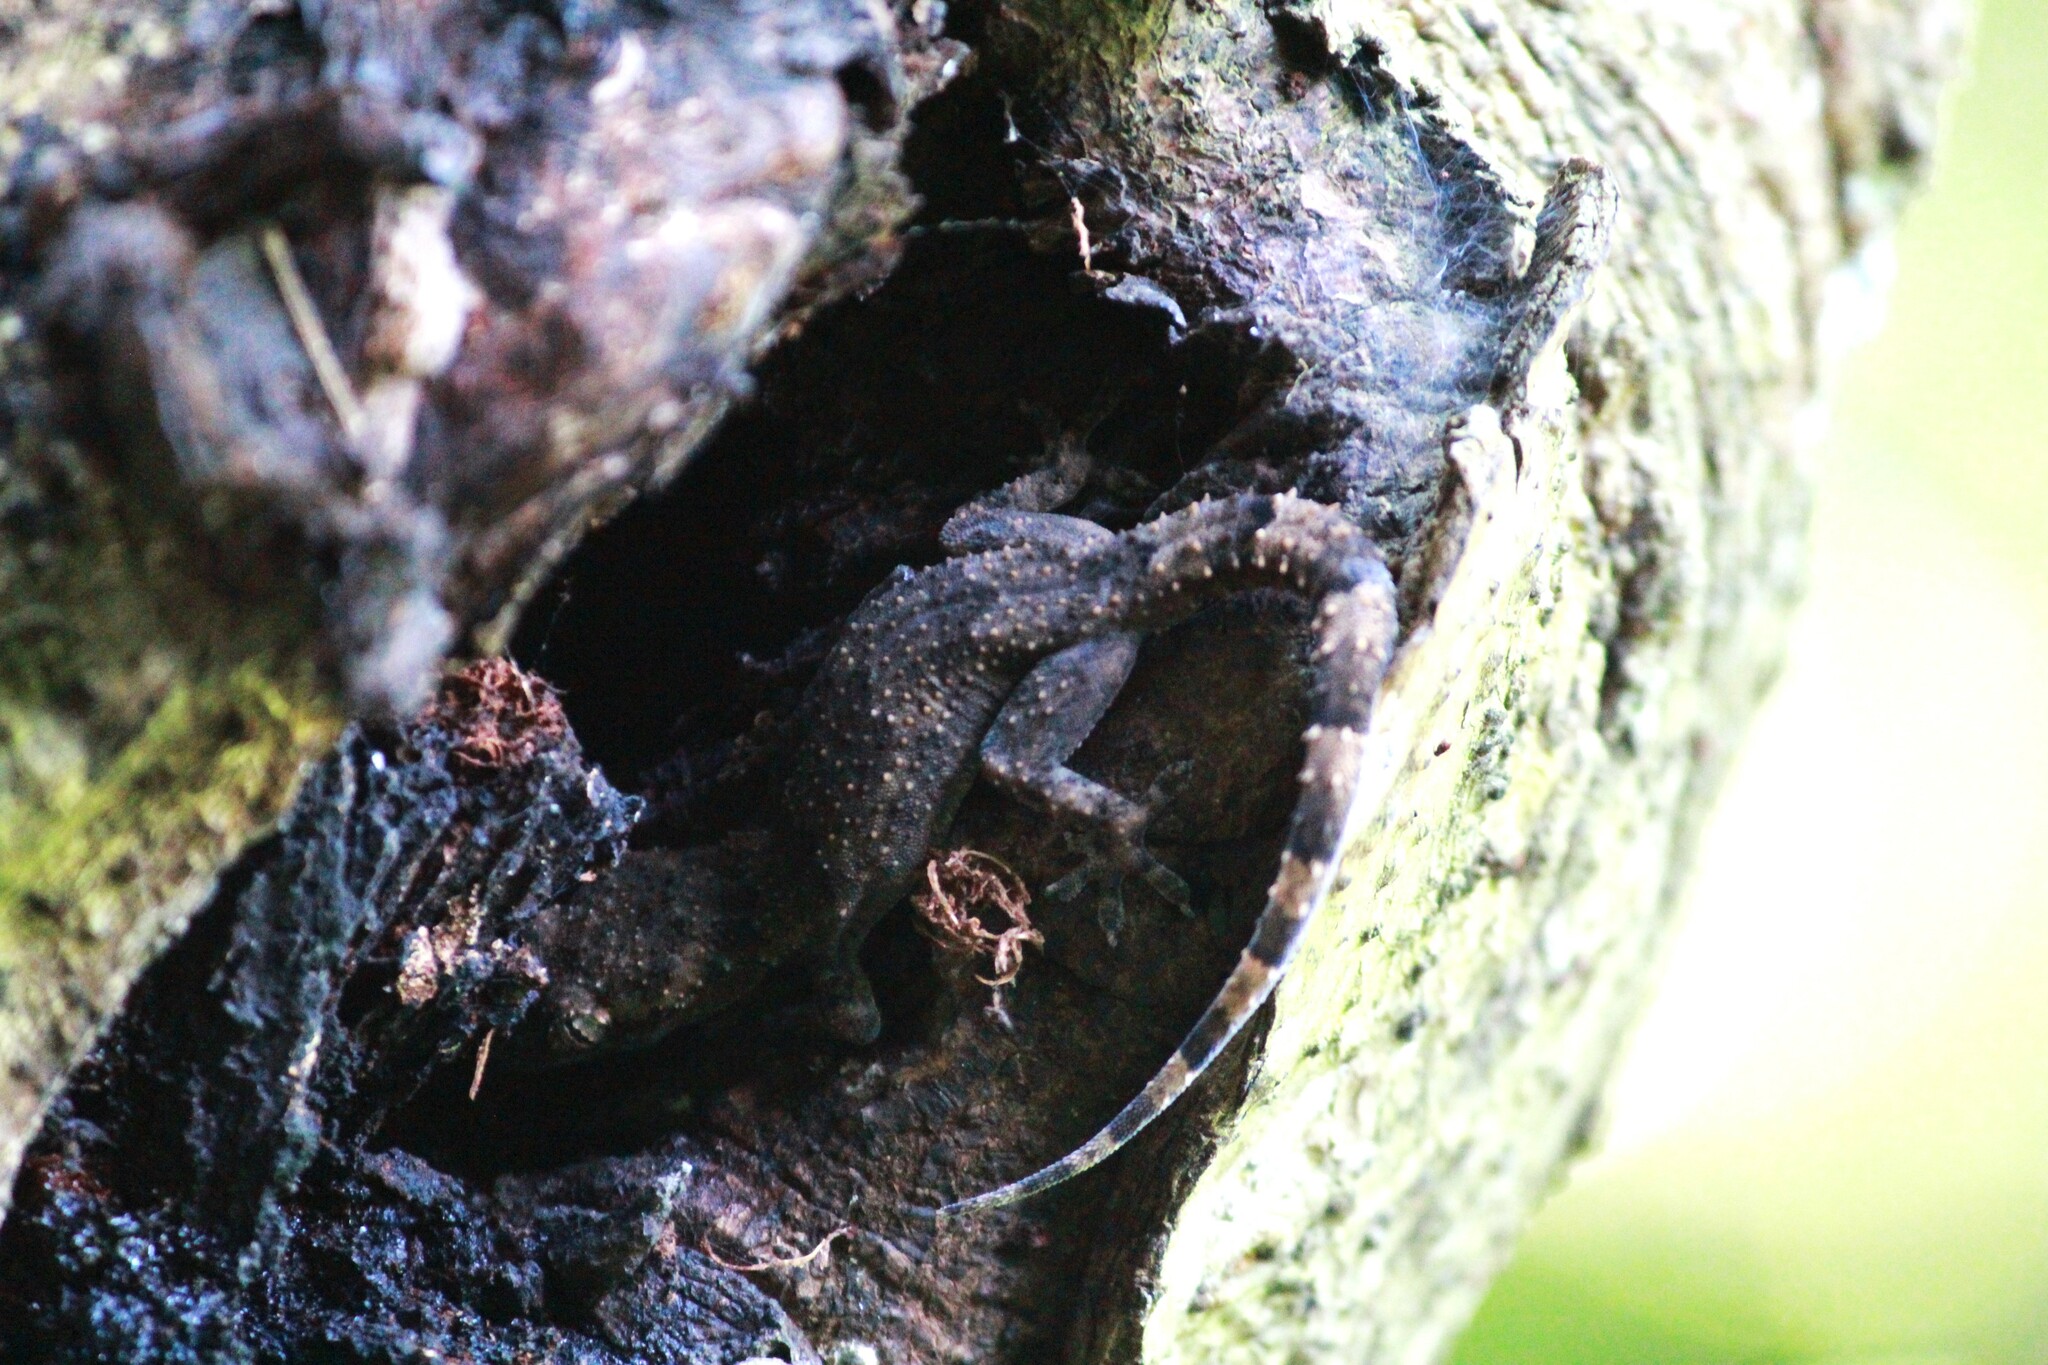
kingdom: Animalia
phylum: Chordata
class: Squamata
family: Gekkonidae
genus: Hemidactylus
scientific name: Hemidactylus mabouia
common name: House gecko
